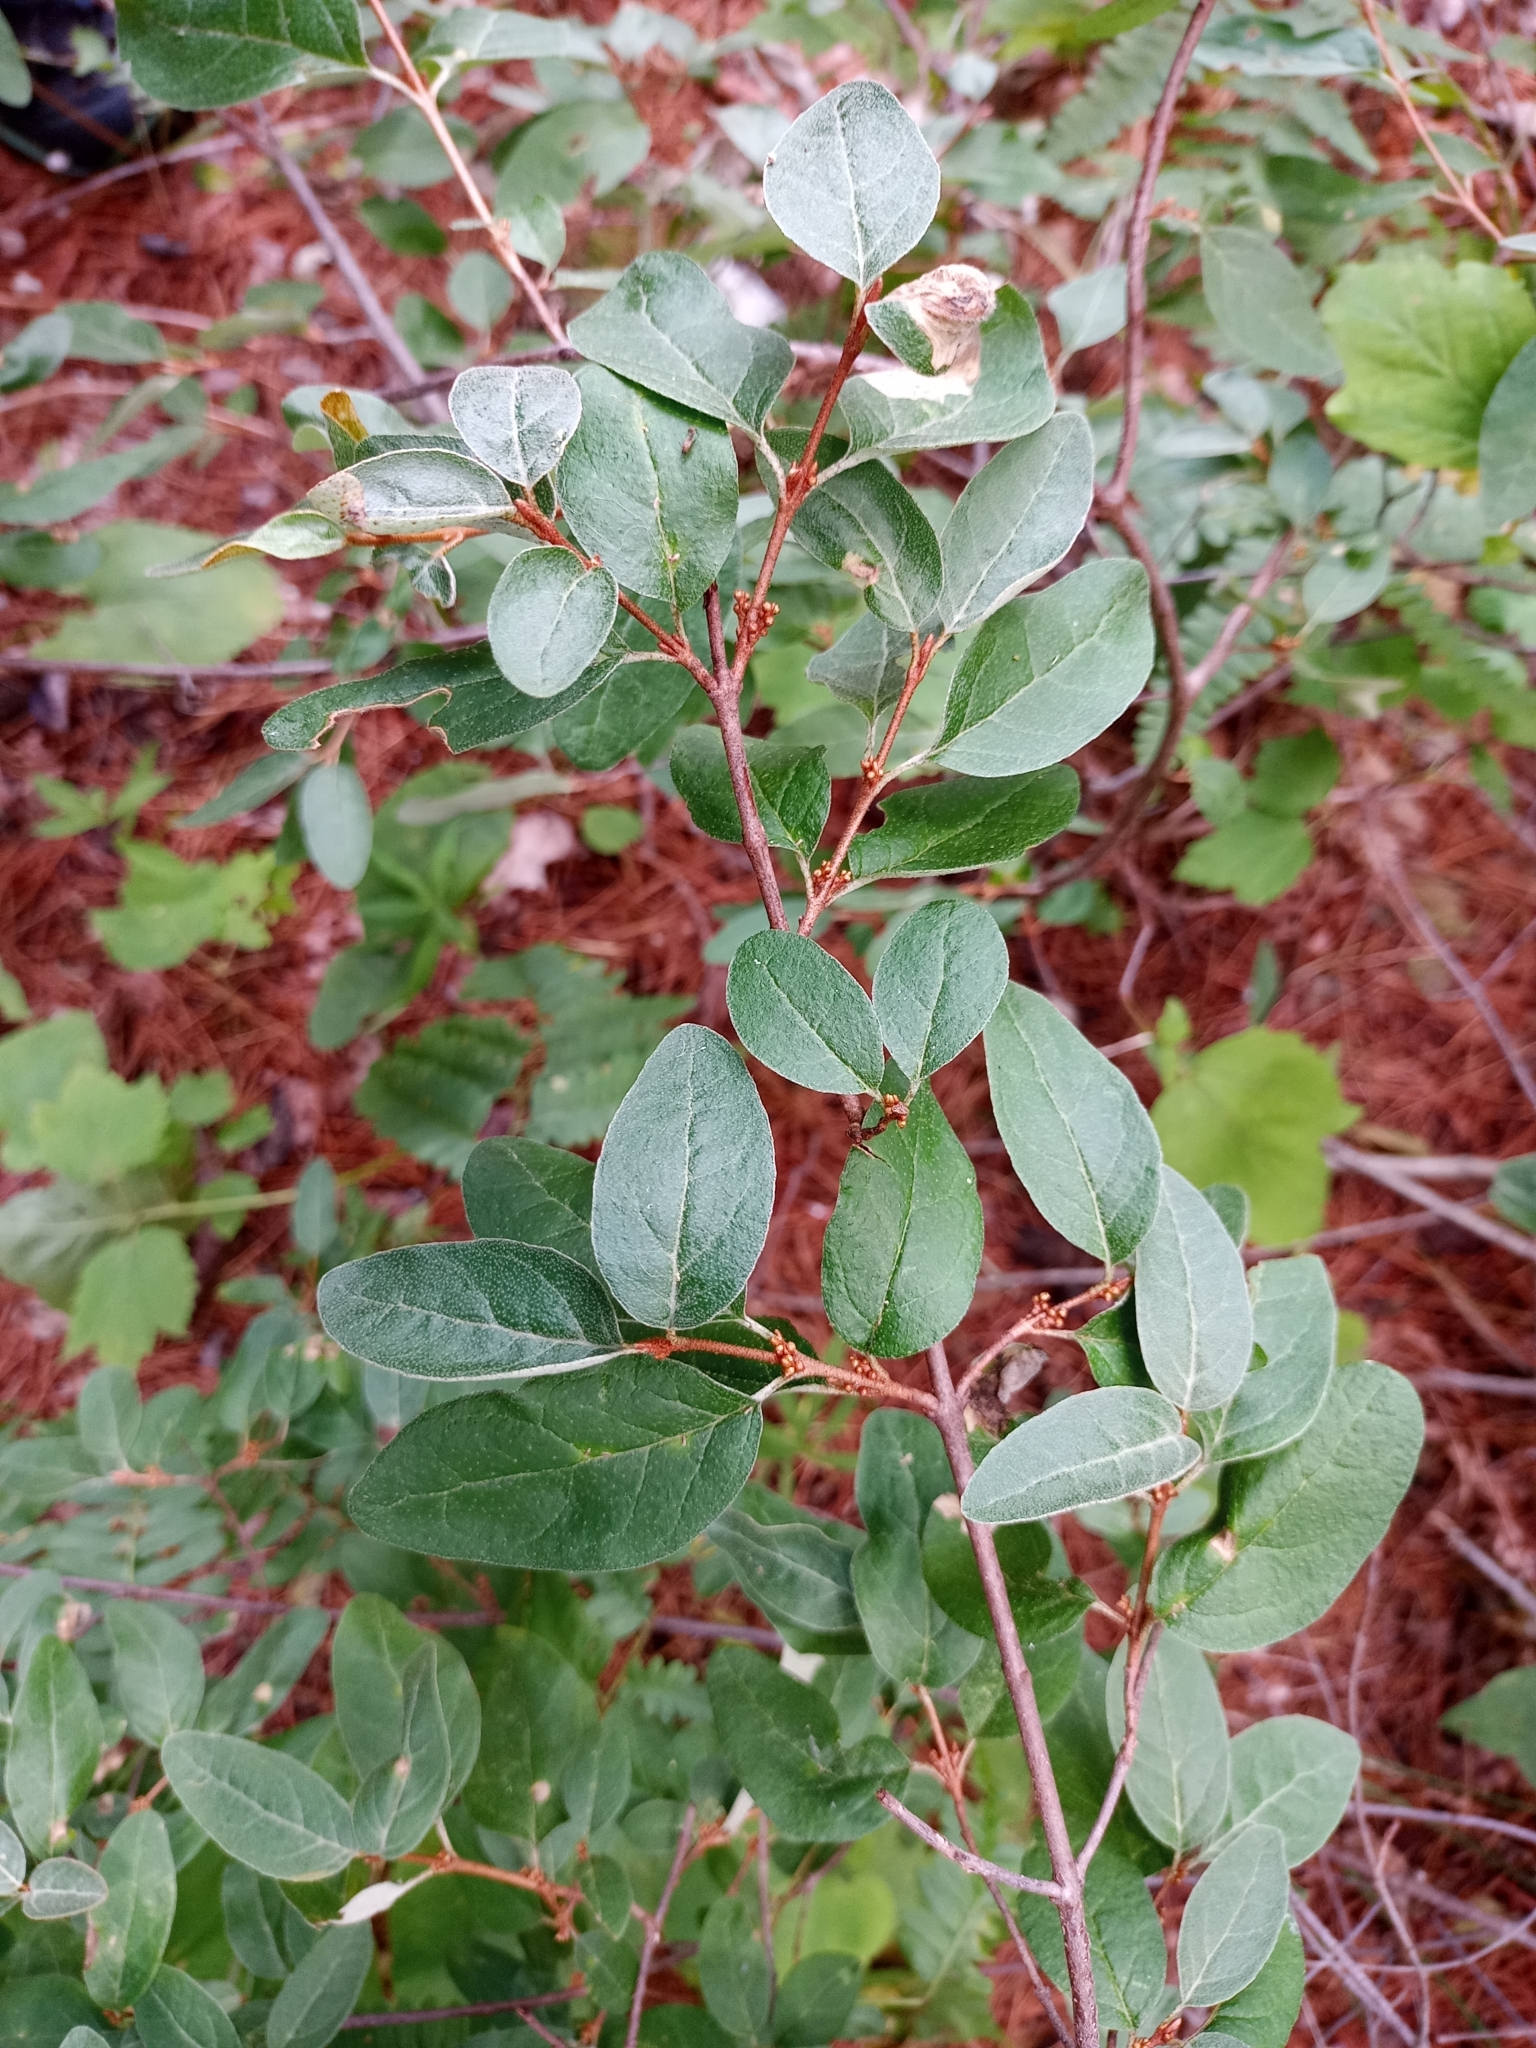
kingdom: Plantae
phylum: Tracheophyta
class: Magnoliopsida
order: Rosales
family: Elaeagnaceae
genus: Shepherdia
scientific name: Shepherdia canadensis
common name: Soapberry
